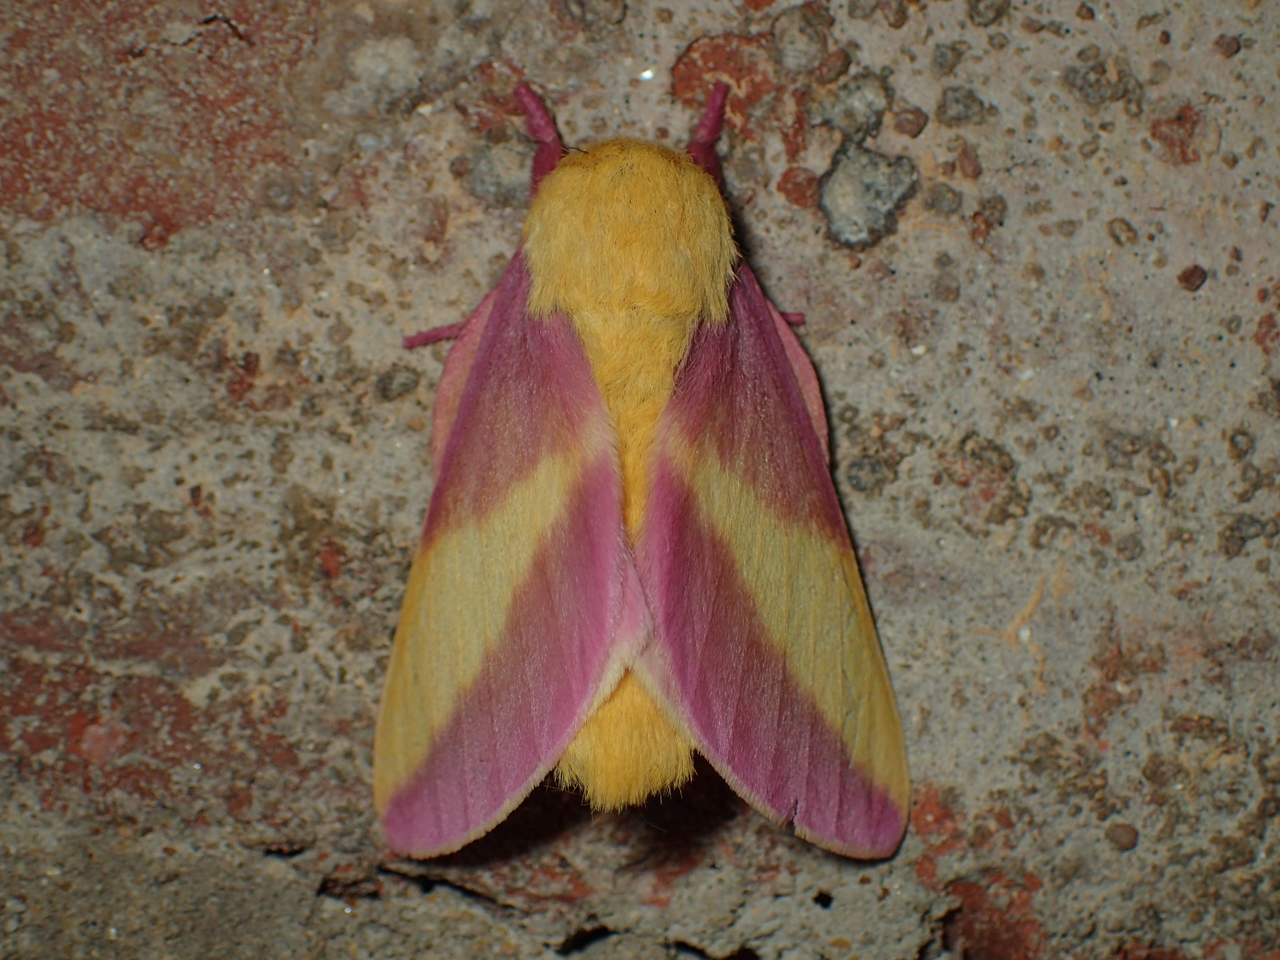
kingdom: Animalia
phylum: Arthropoda
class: Insecta
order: Lepidoptera
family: Saturniidae
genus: Dryocampa
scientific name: Dryocampa rubicunda
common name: Rosy maple moth
